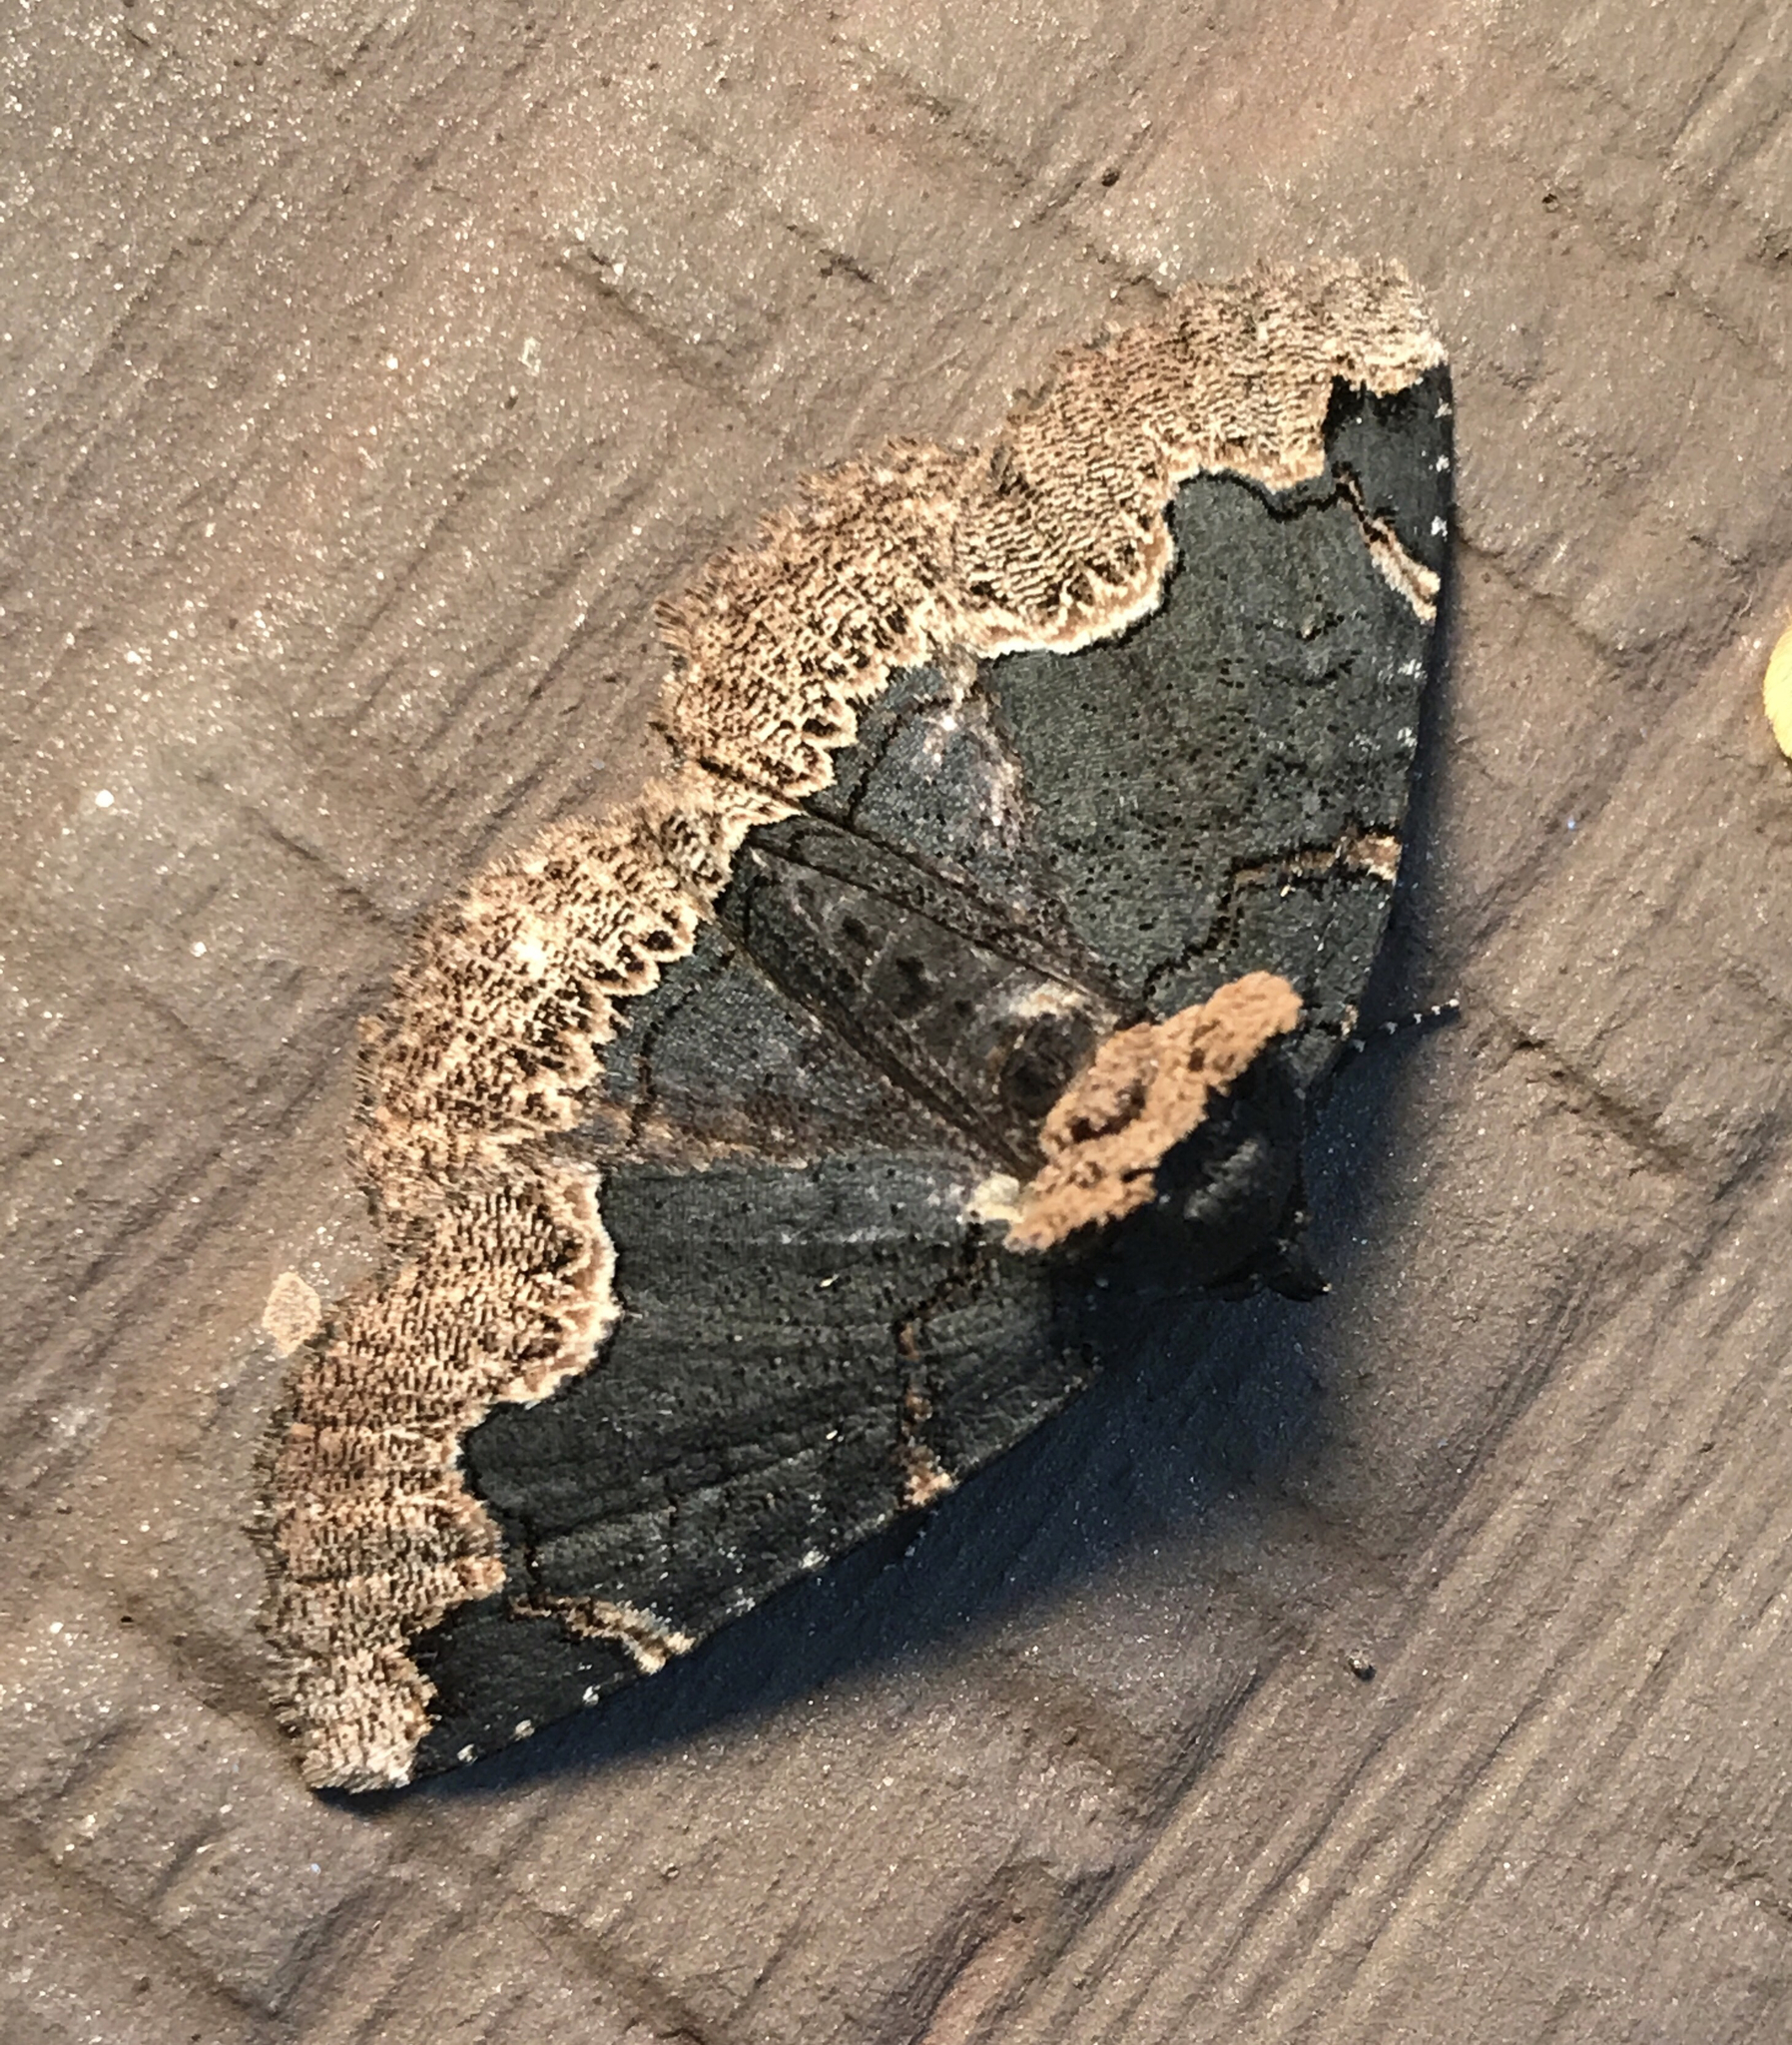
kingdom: Animalia
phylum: Arthropoda
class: Insecta
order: Lepidoptera
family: Erebidae
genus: Zale
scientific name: Zale horrida
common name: Horrid zale moth
